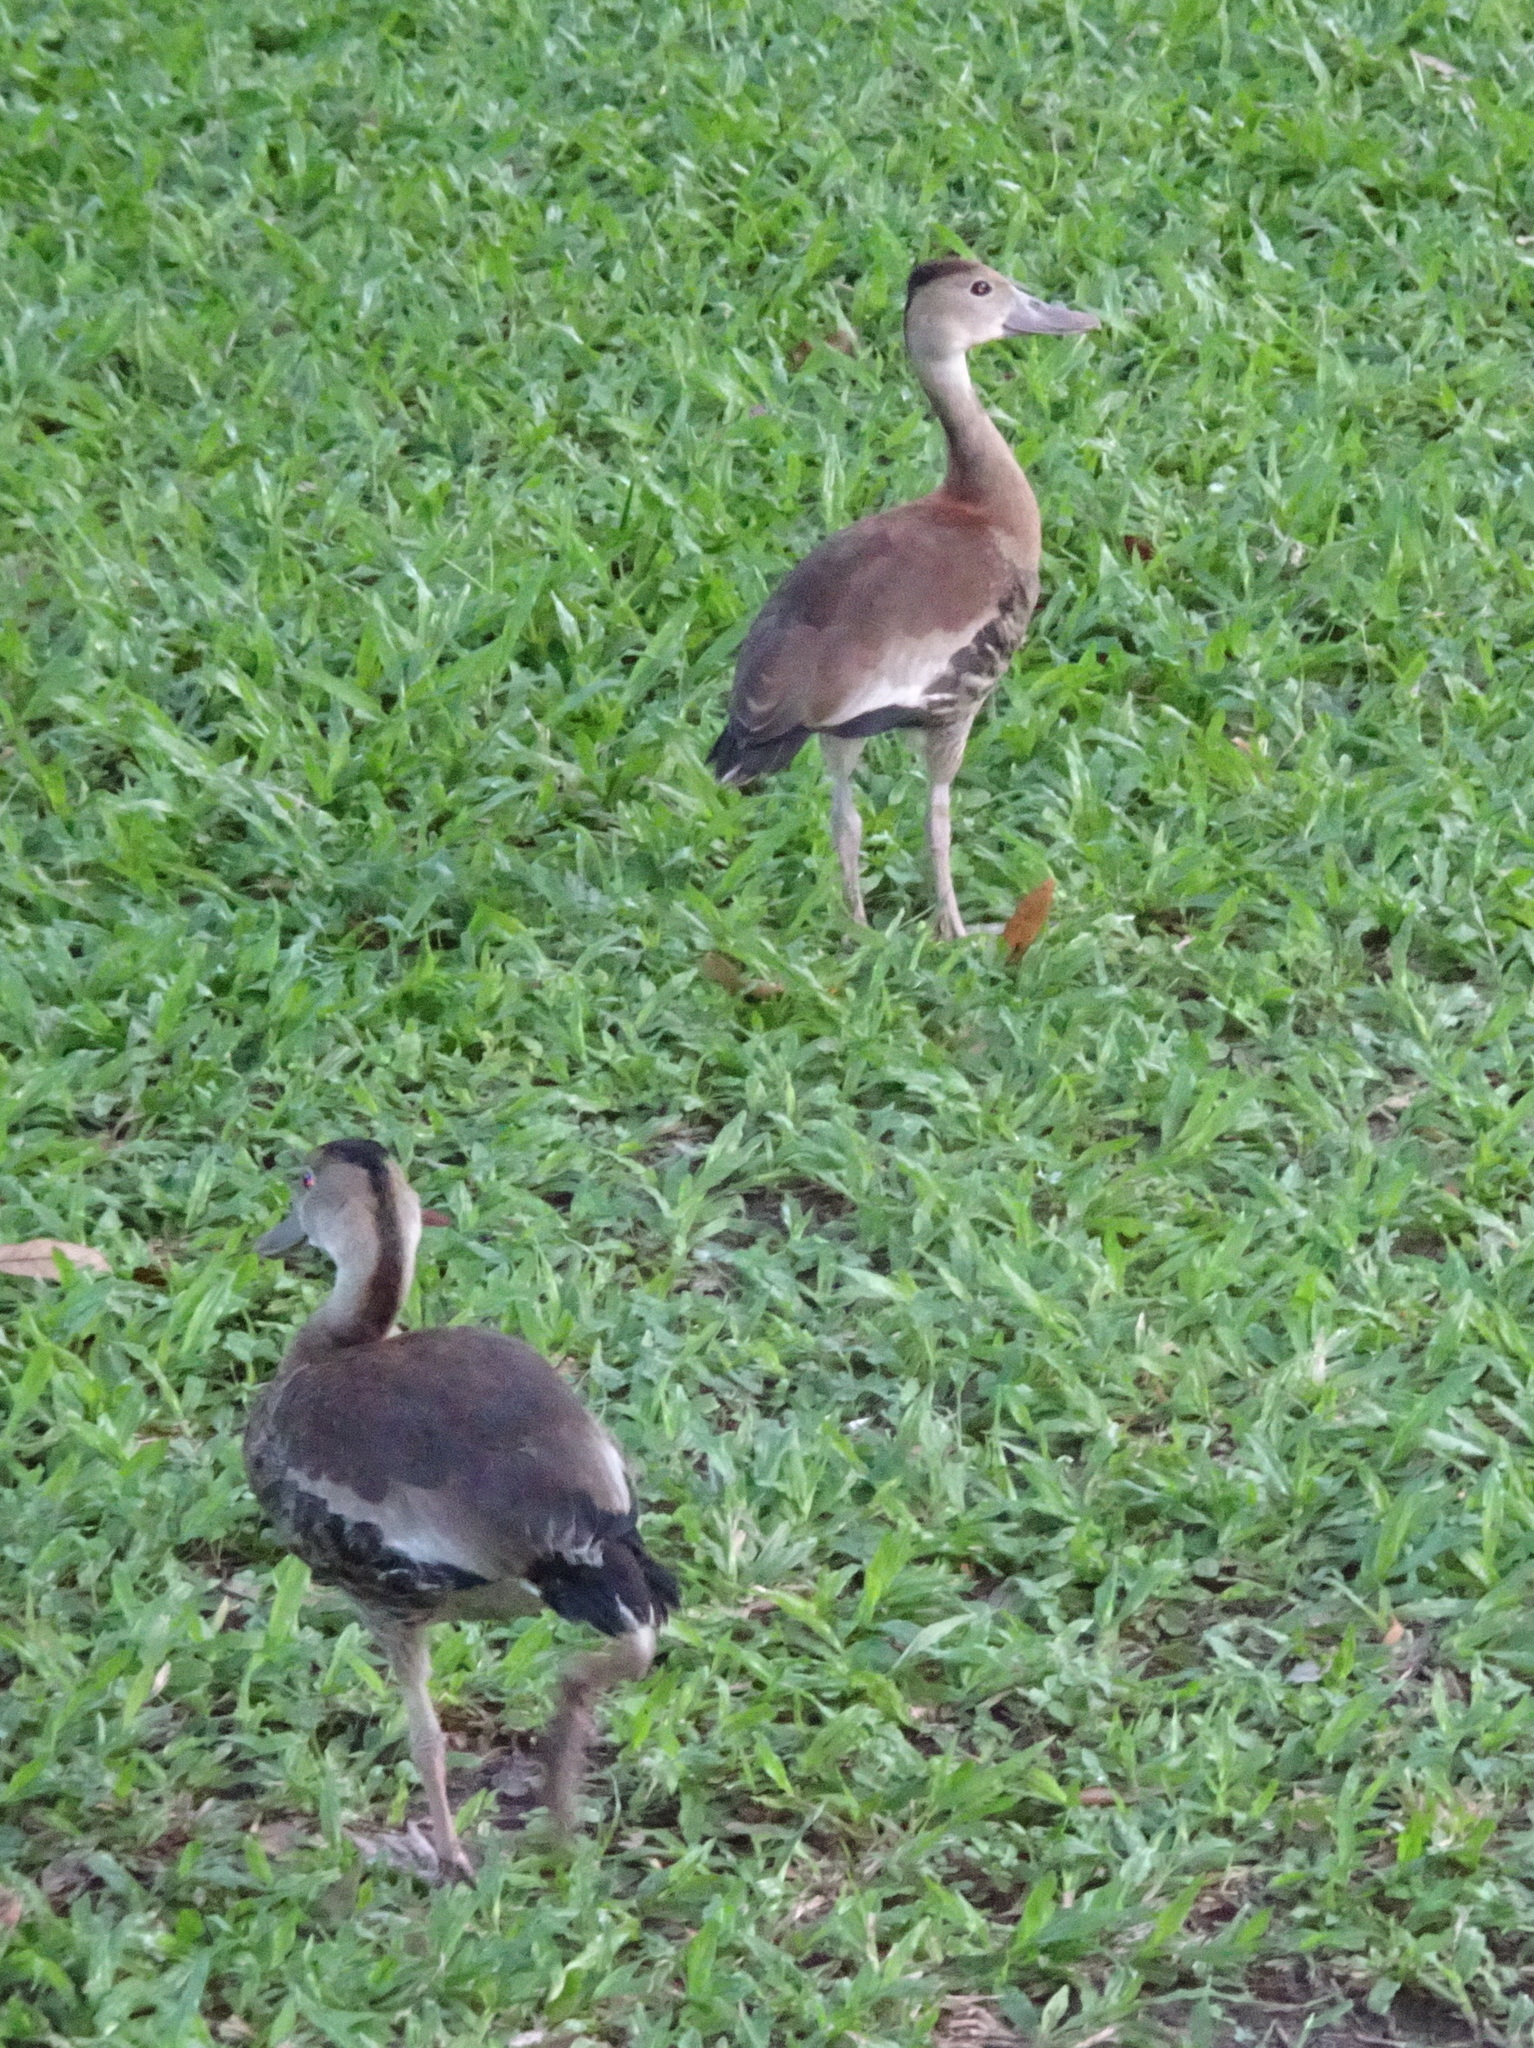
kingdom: Animalia
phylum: Chordata
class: Aves
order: Anseriformes
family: Anatidae
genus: Dendrocygna
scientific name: Dendrocygna autumnalis
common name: Black-bellied whistling duck
